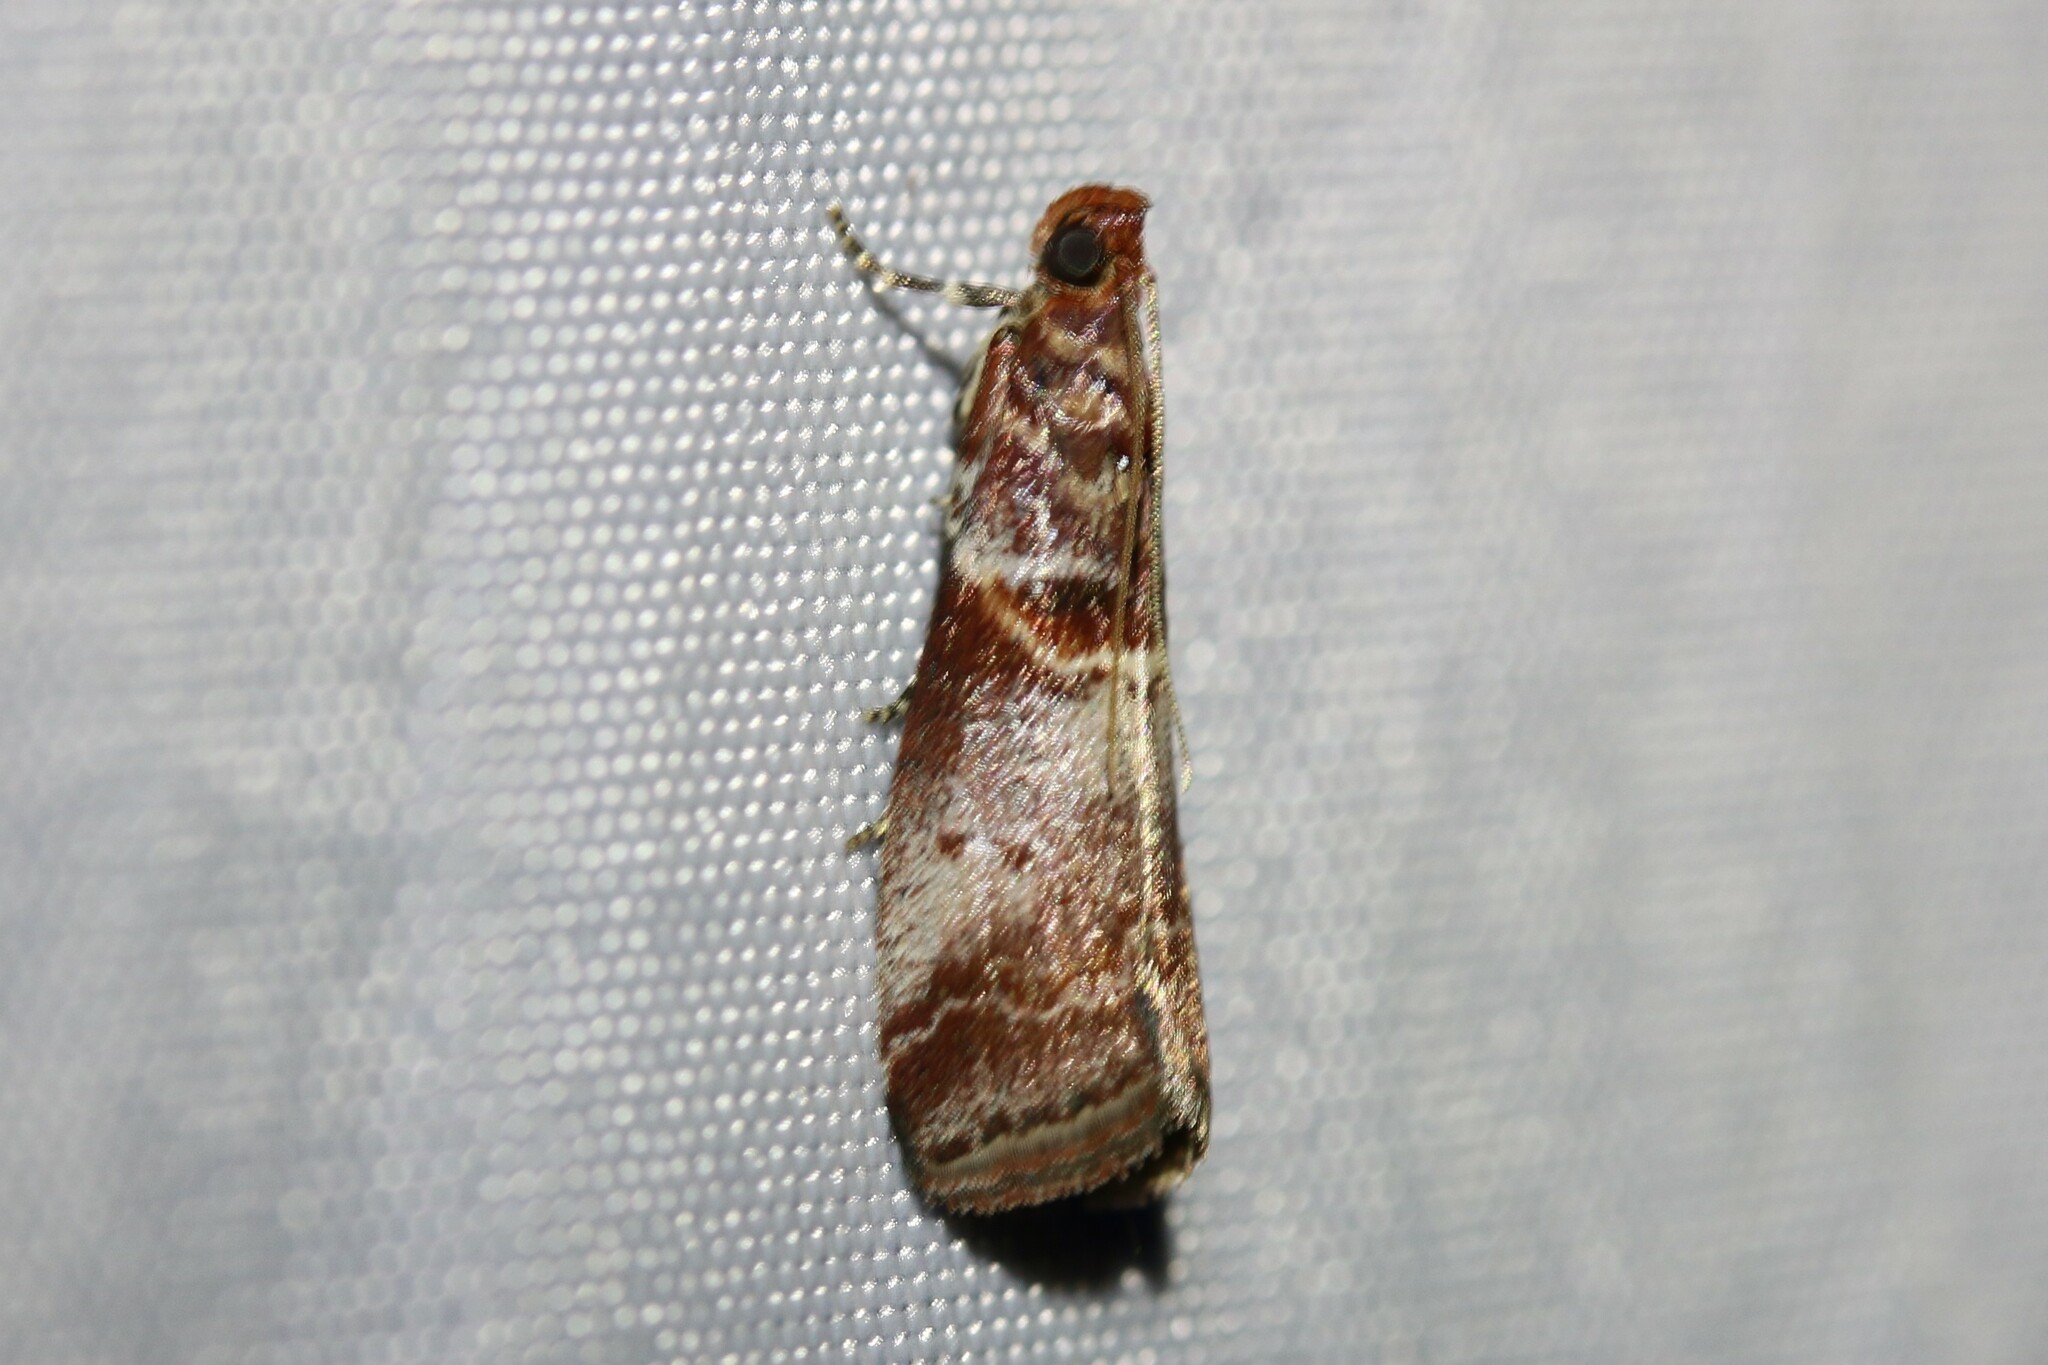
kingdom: Animalia
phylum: Arthropoda
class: Insecta
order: Lepidoptera
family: Pyralidae
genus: Acrobasis
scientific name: Acrobasis advenella
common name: Grey knot-horn
